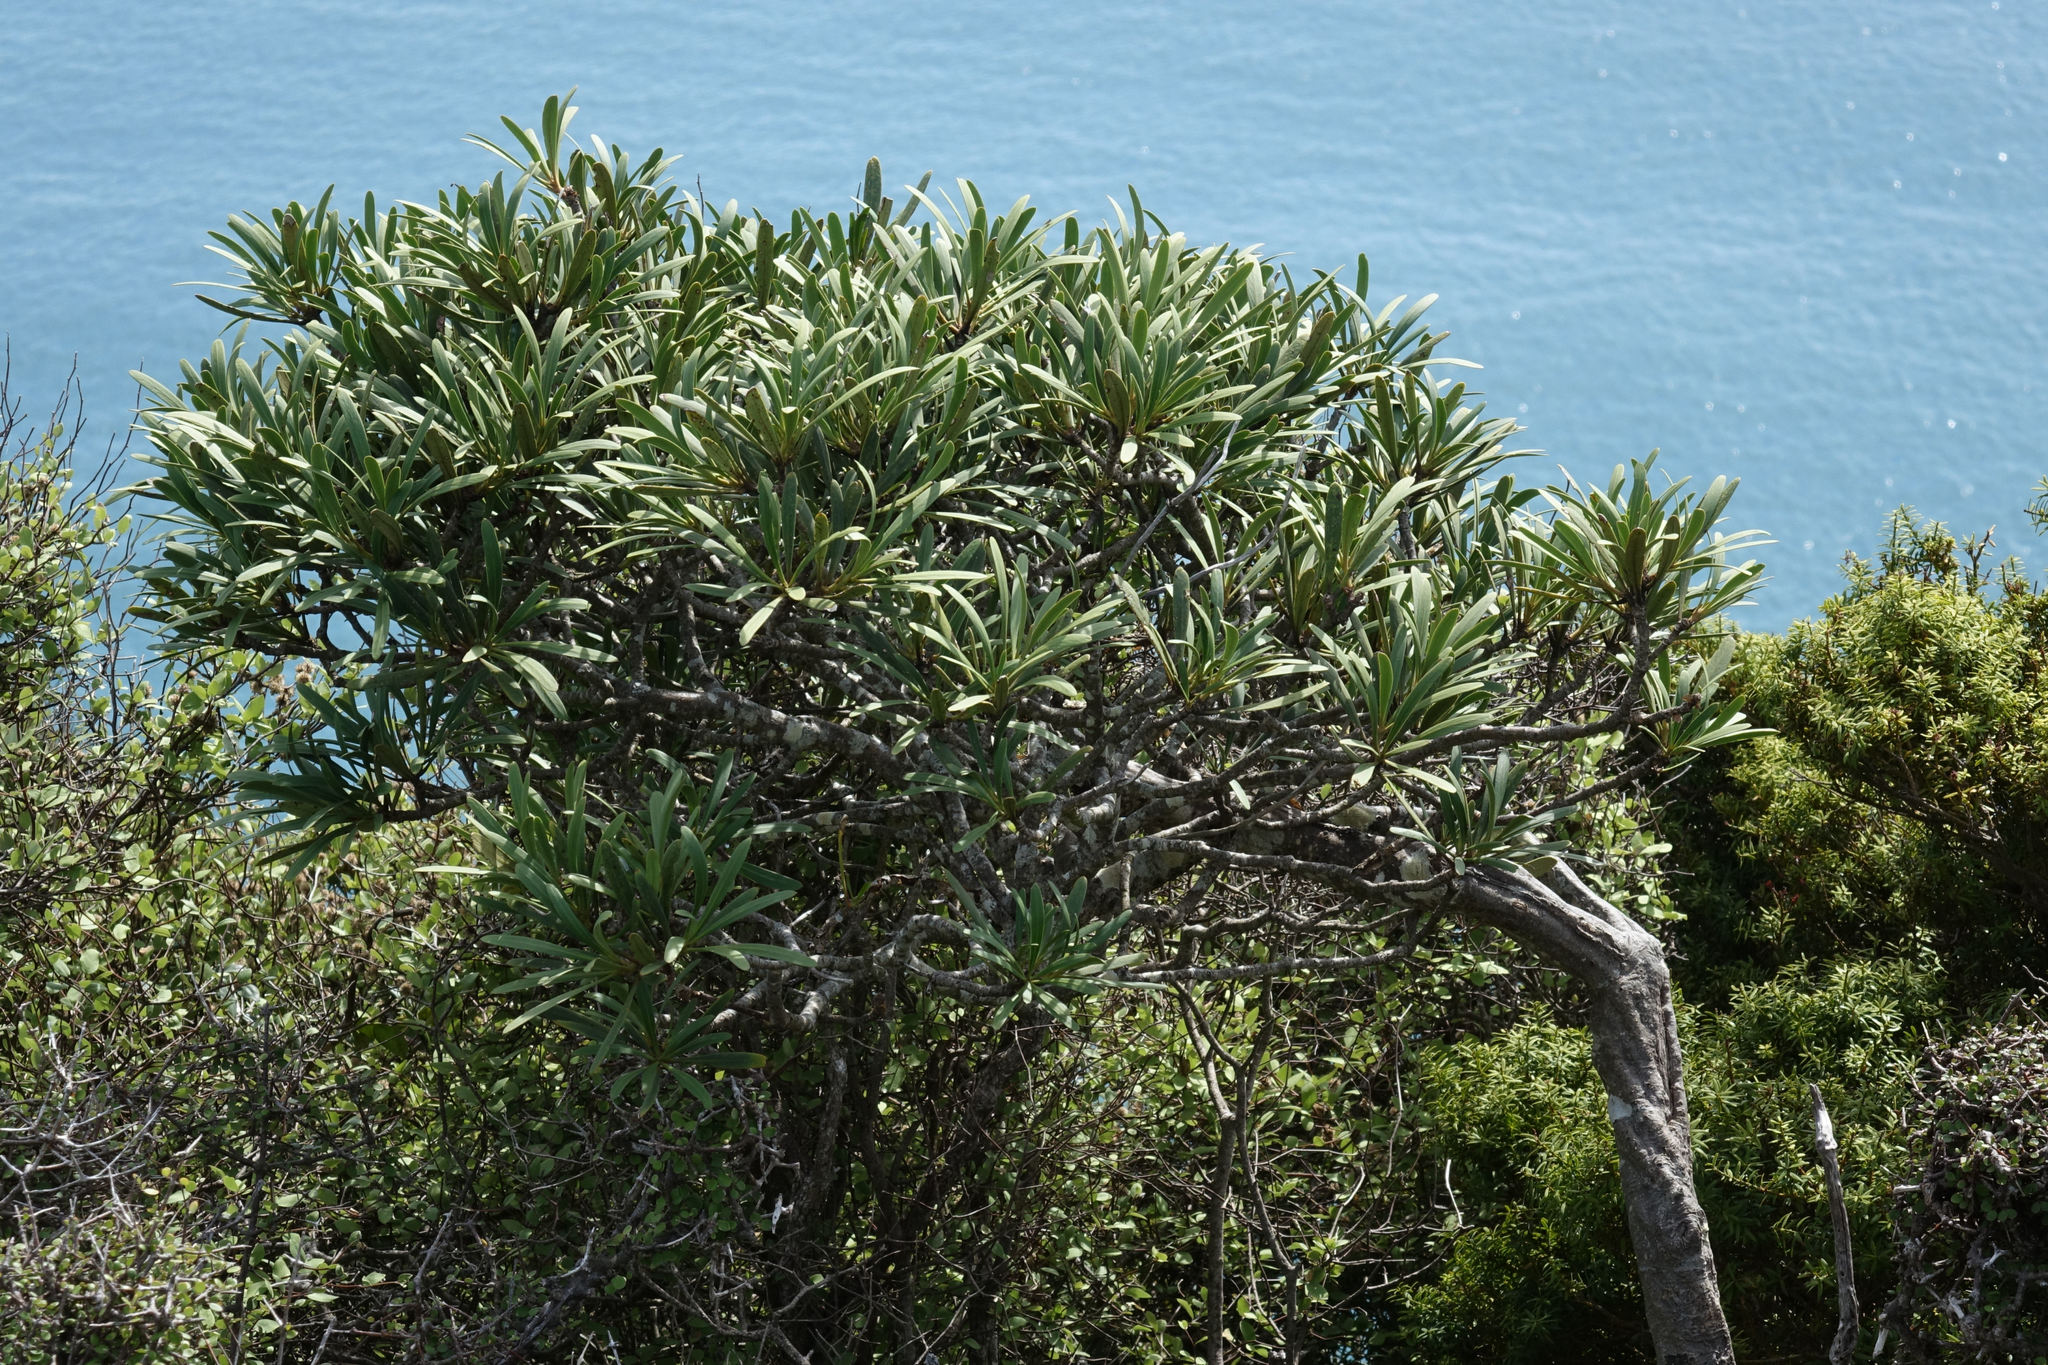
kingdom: Plantae
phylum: Tracheophyta
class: Magnoliopsida
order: Apiales
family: Araliaceae
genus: Pseudopanax
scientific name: Pseudopanax ferox
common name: Fierce lancewood
